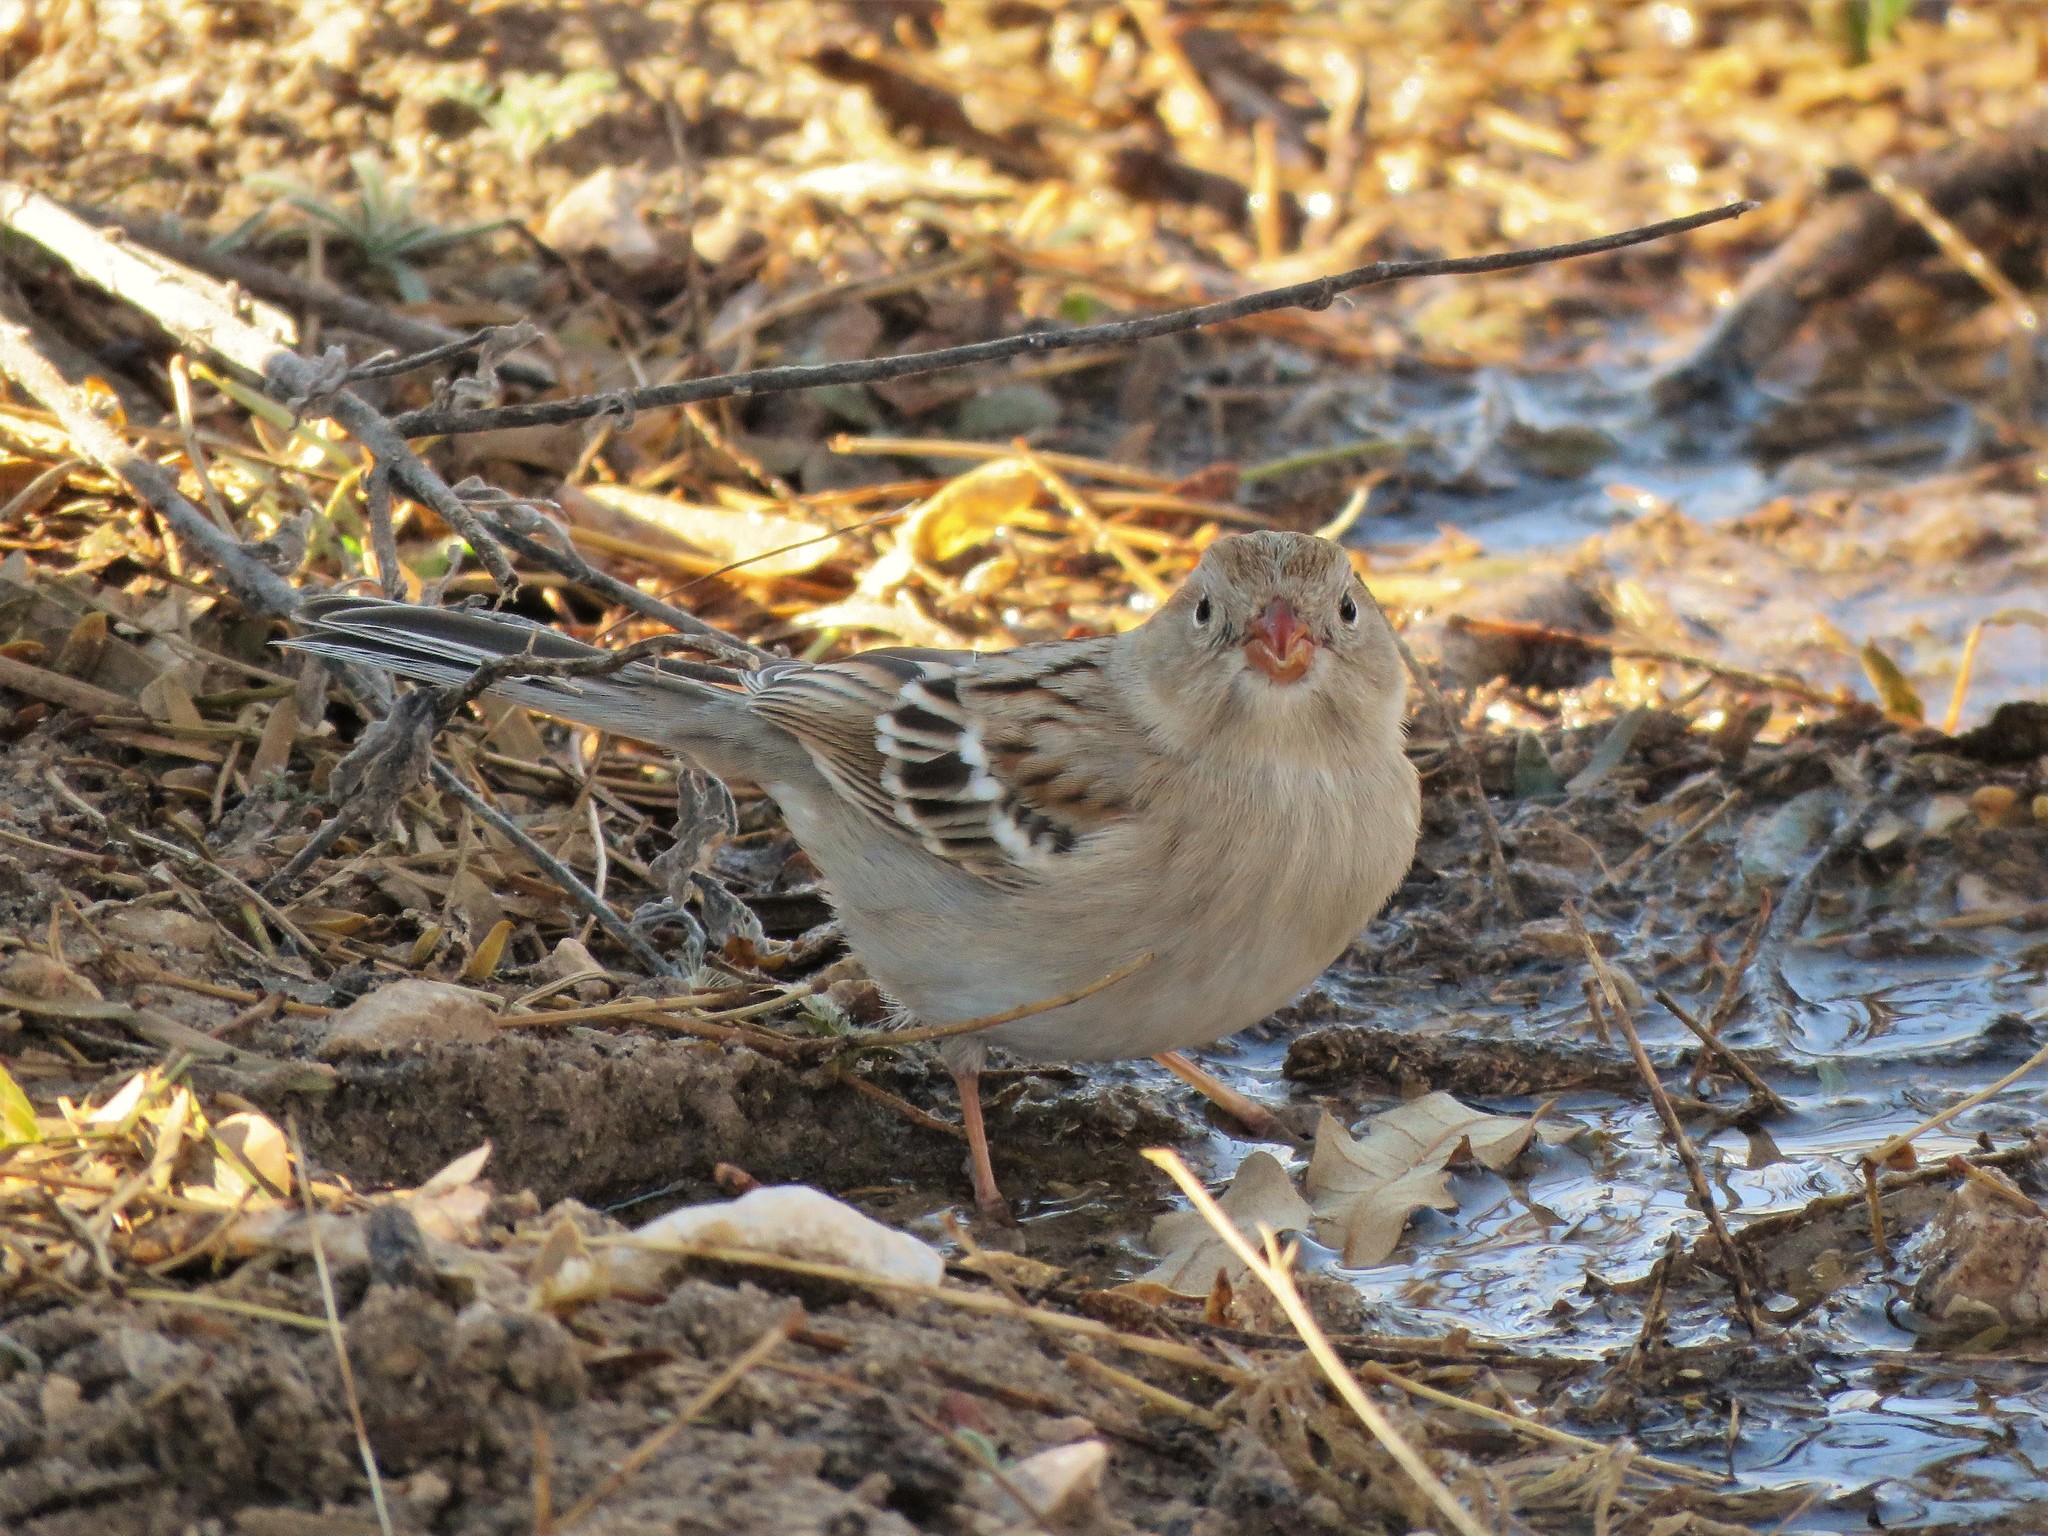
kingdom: Animalia
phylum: Chordata
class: Aves
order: Passeriformes
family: Passerellidae
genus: Spizella
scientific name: Spizella pusilla
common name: Field sparrow
